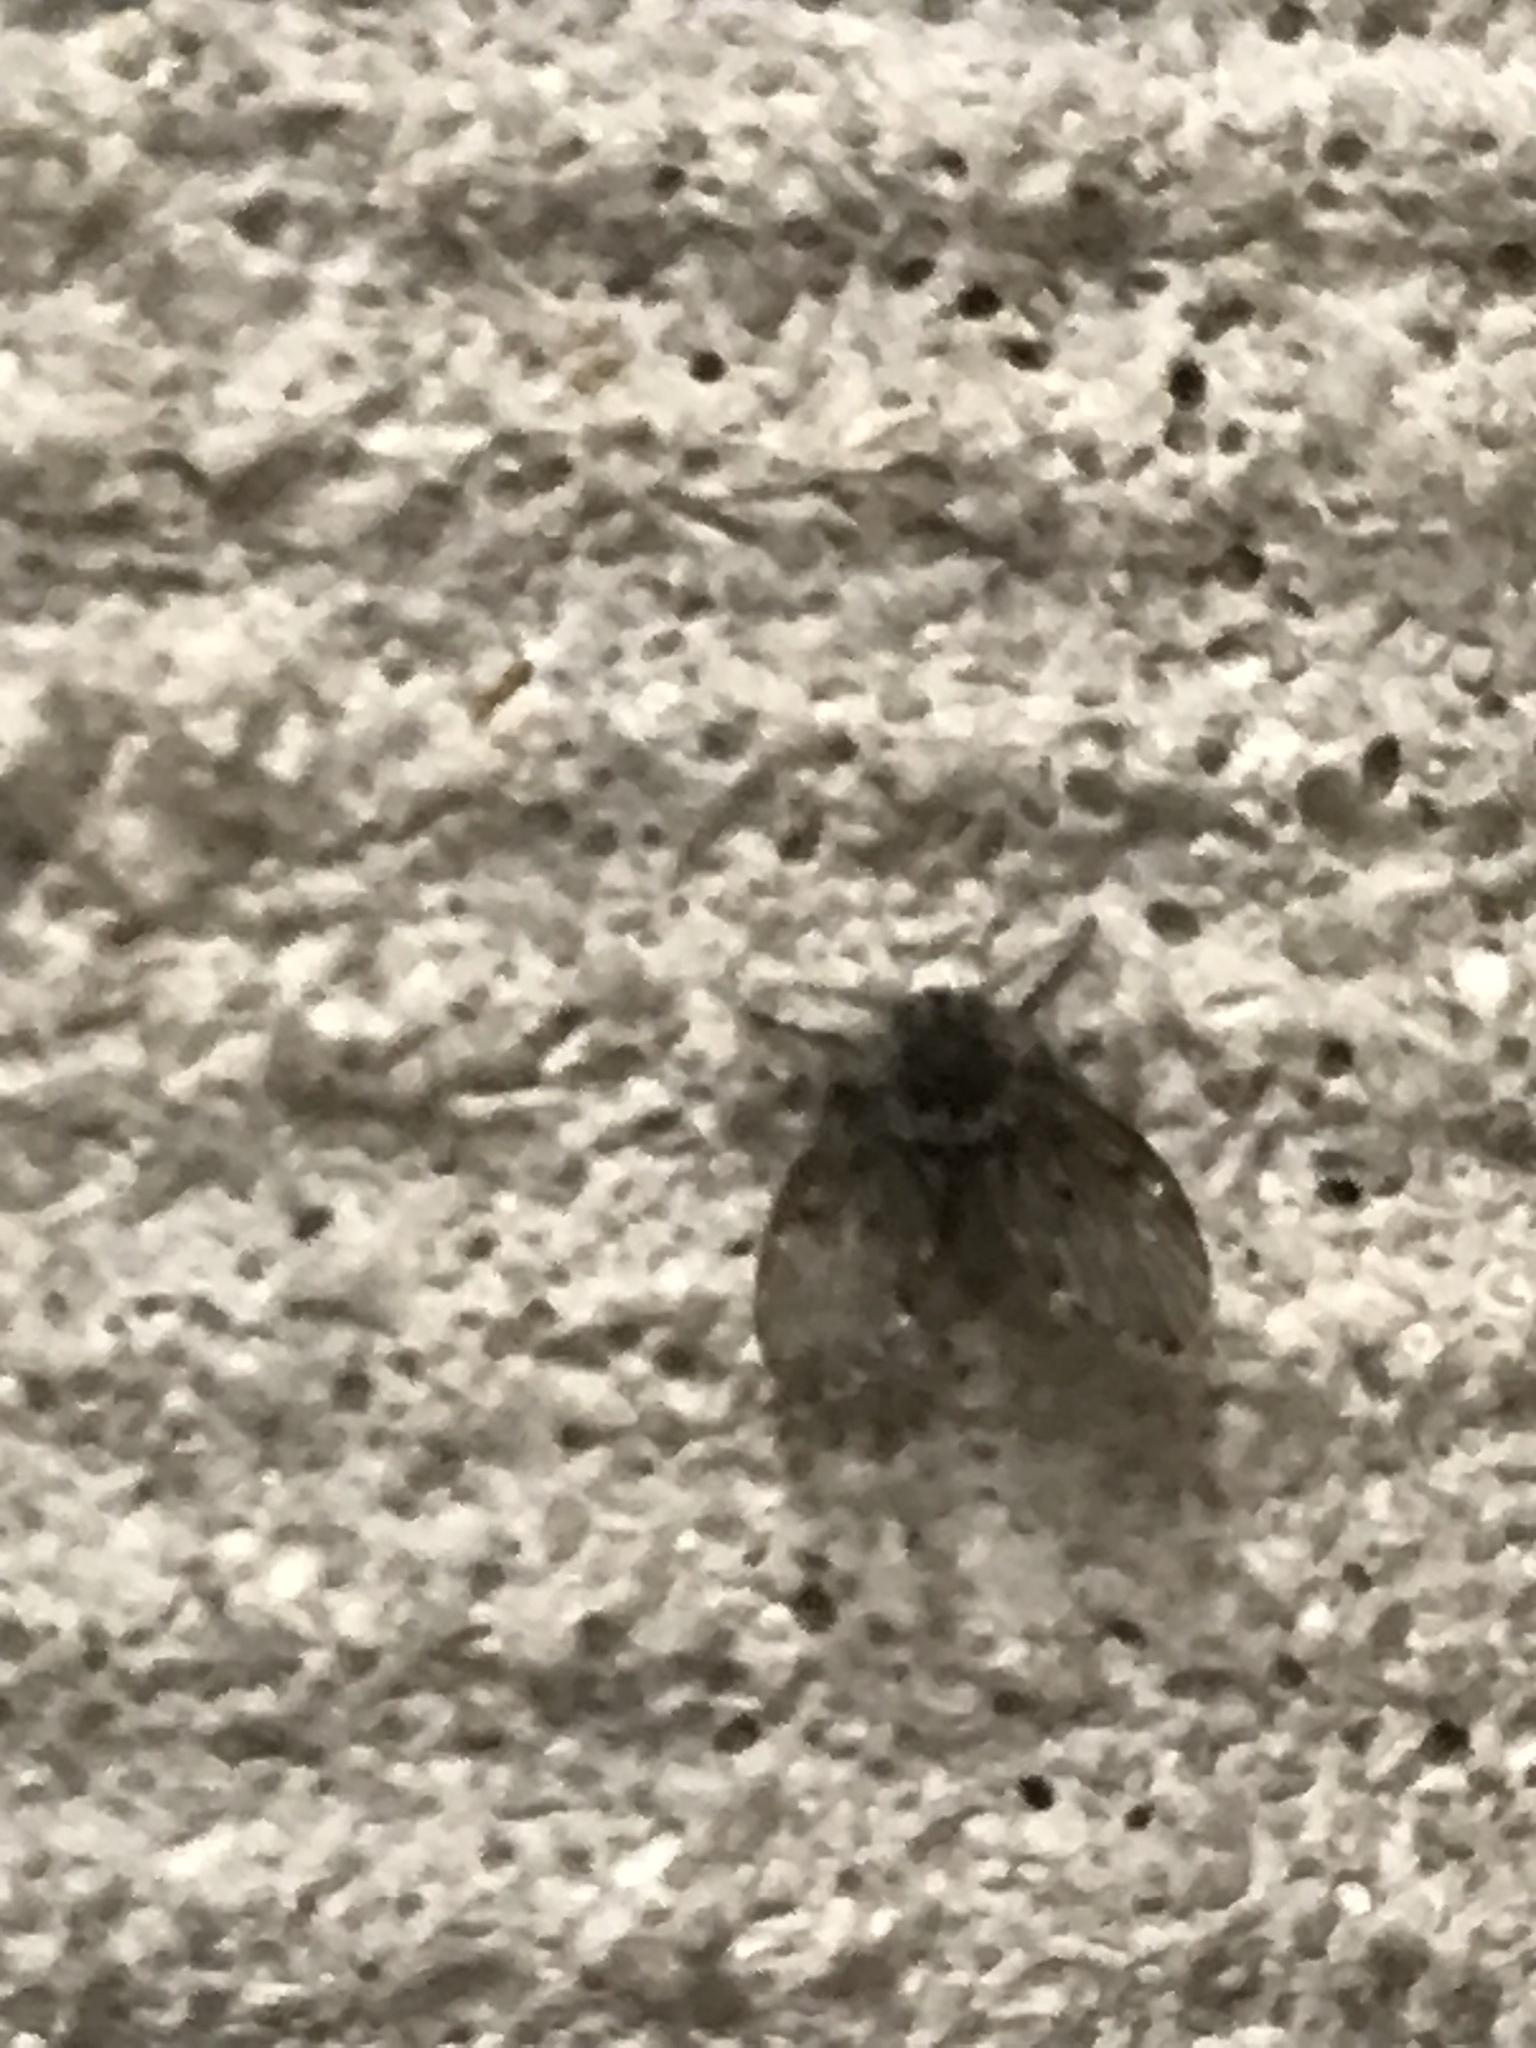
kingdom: Animalia
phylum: Arthropoda
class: Insecta
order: Diptera
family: Psychodidae
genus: Clogmia
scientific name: Clogmia albipunctatus
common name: White-spotted moth fly
